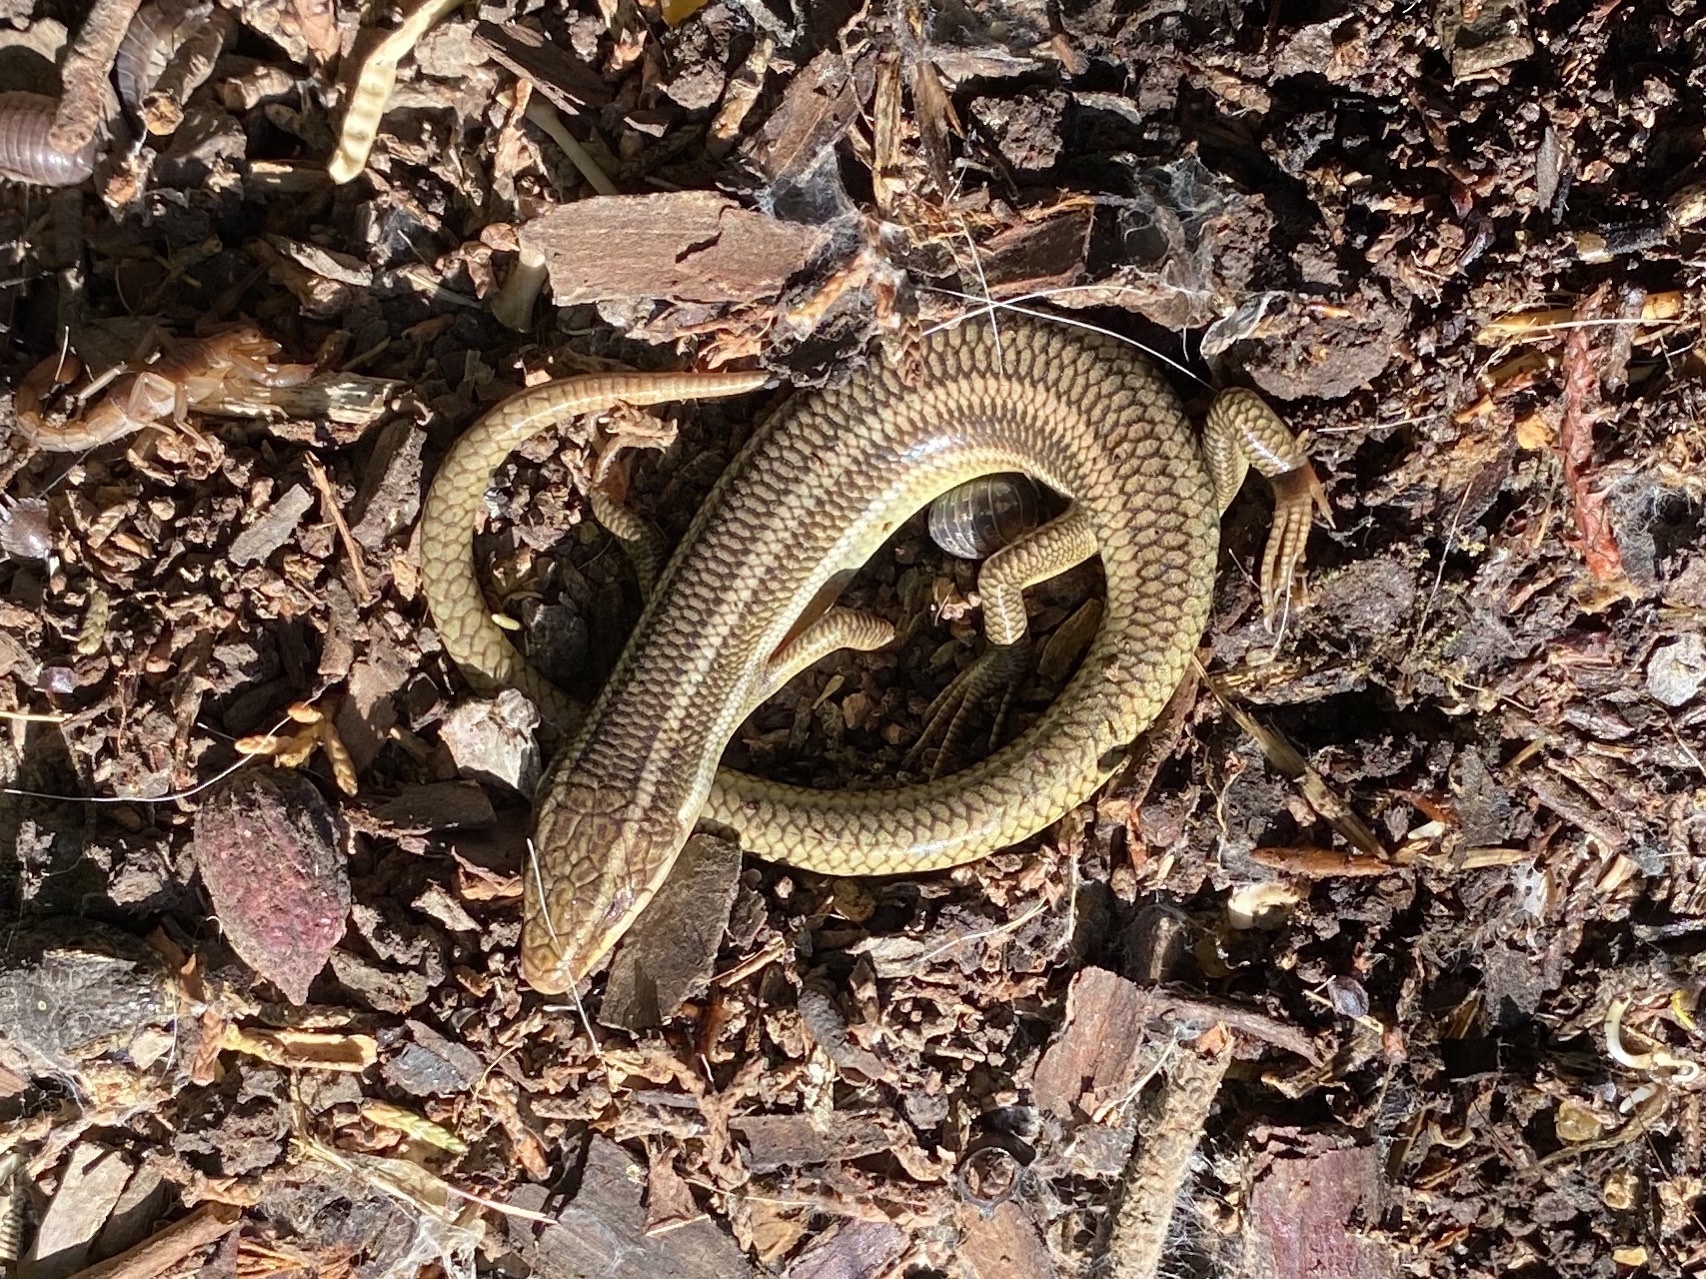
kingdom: Animalia
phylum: Chordata
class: Squamata
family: Scincidae
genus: Plestiodon
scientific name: Plestiodon gilberti
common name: Gilbert's skink
